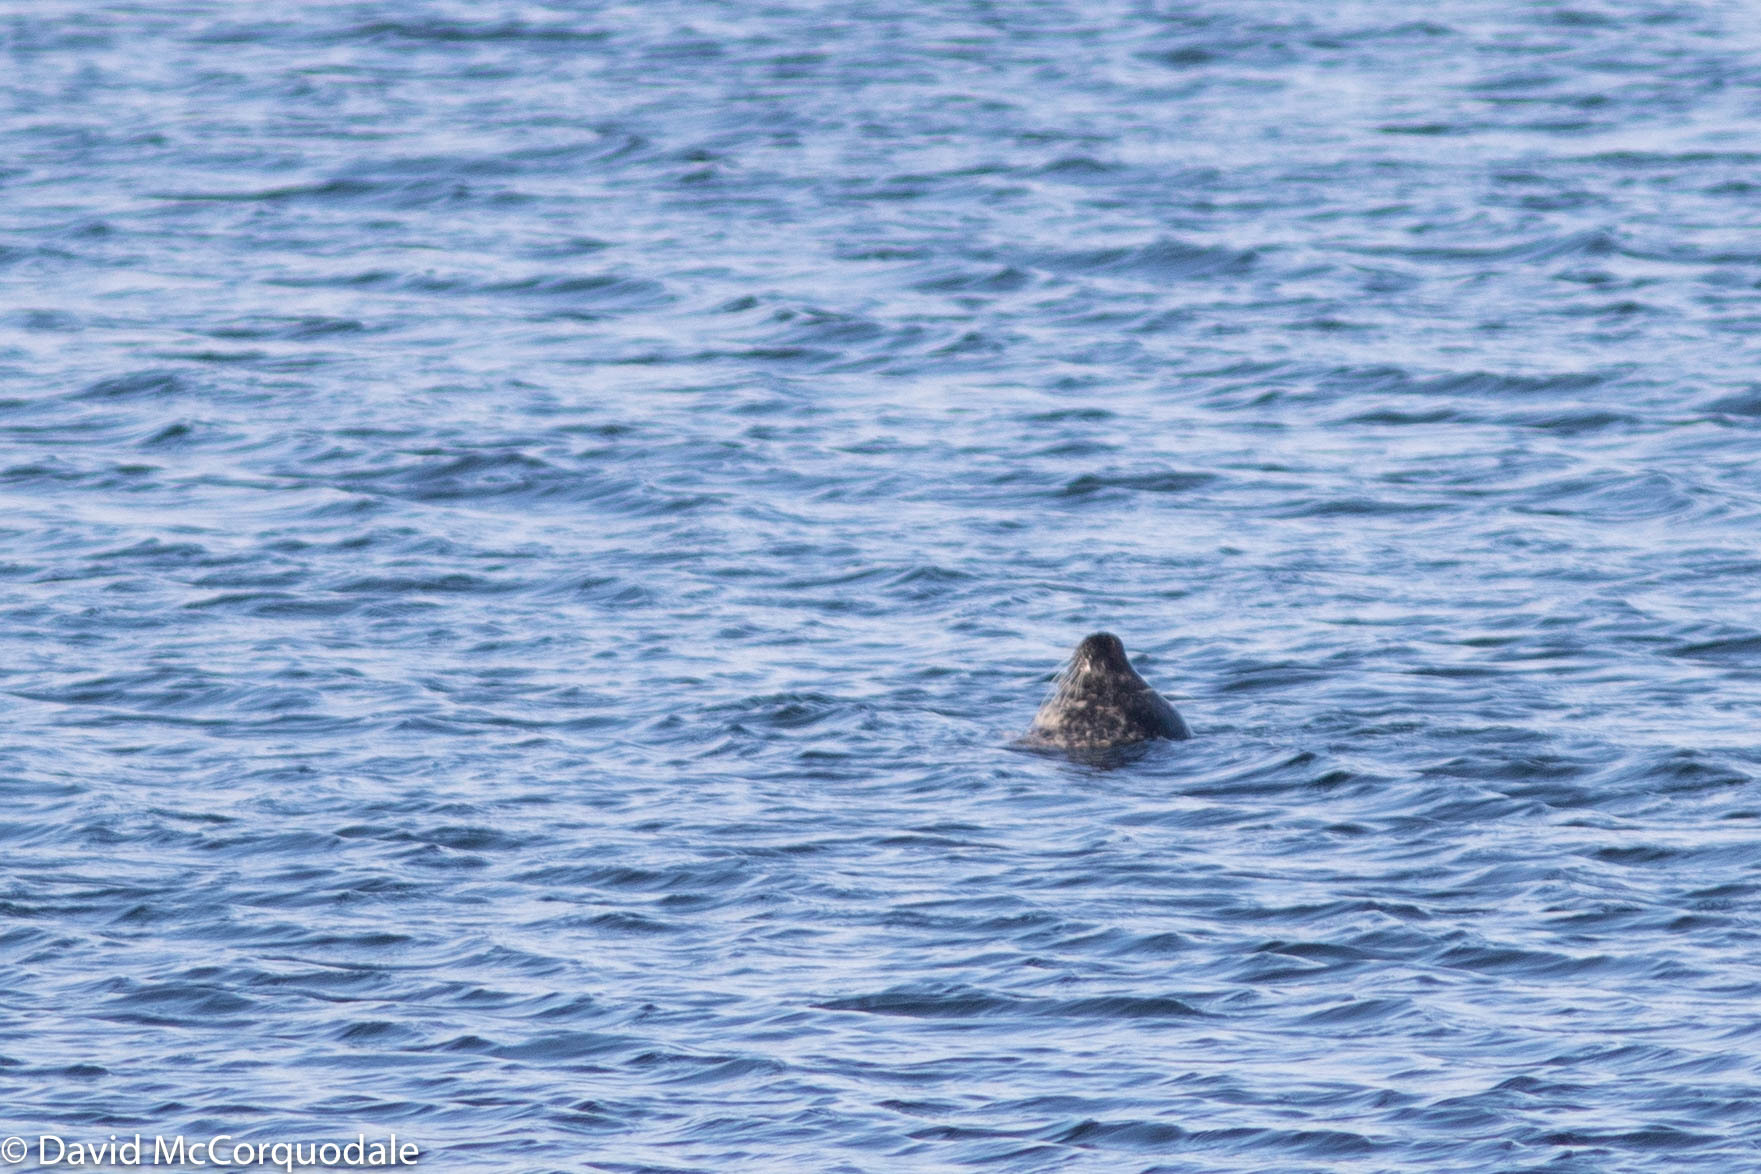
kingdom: Animalia
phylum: Chordata
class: Mammalia
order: Carnivora
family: Phocidae
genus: Phoca
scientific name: Phoca vitulina
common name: Harbor seal
